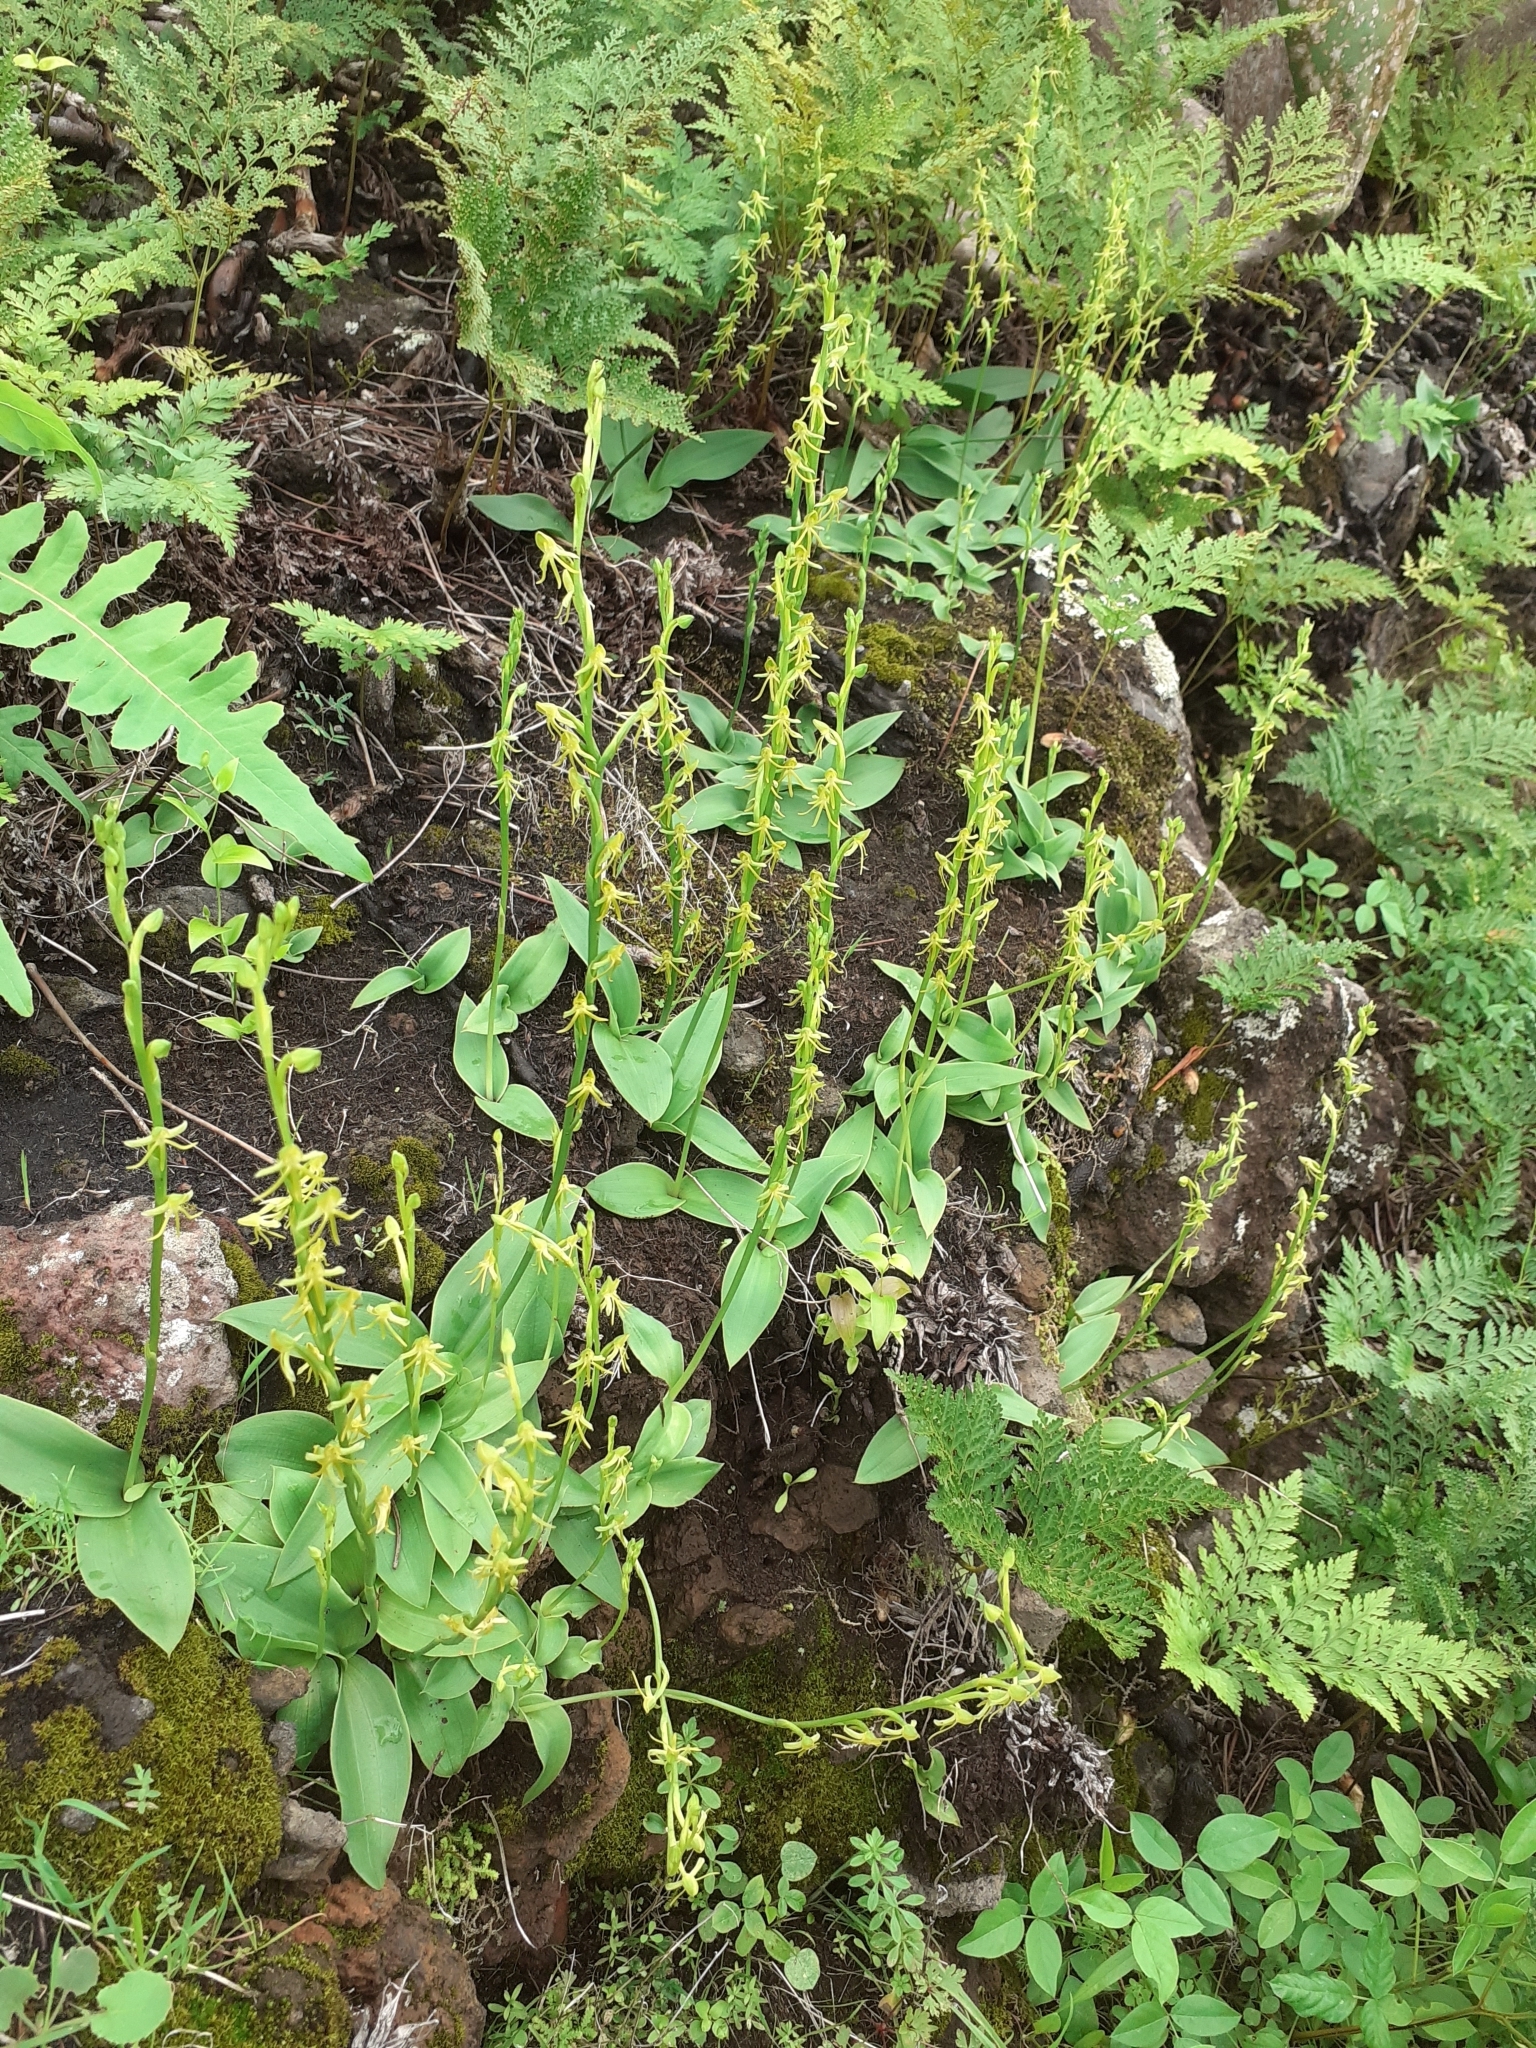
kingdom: Plantae
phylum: Tracheophyta
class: Liliopsida
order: Asparagales
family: Orchidaceae
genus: Habenaria
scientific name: Habenaria tridactylites
